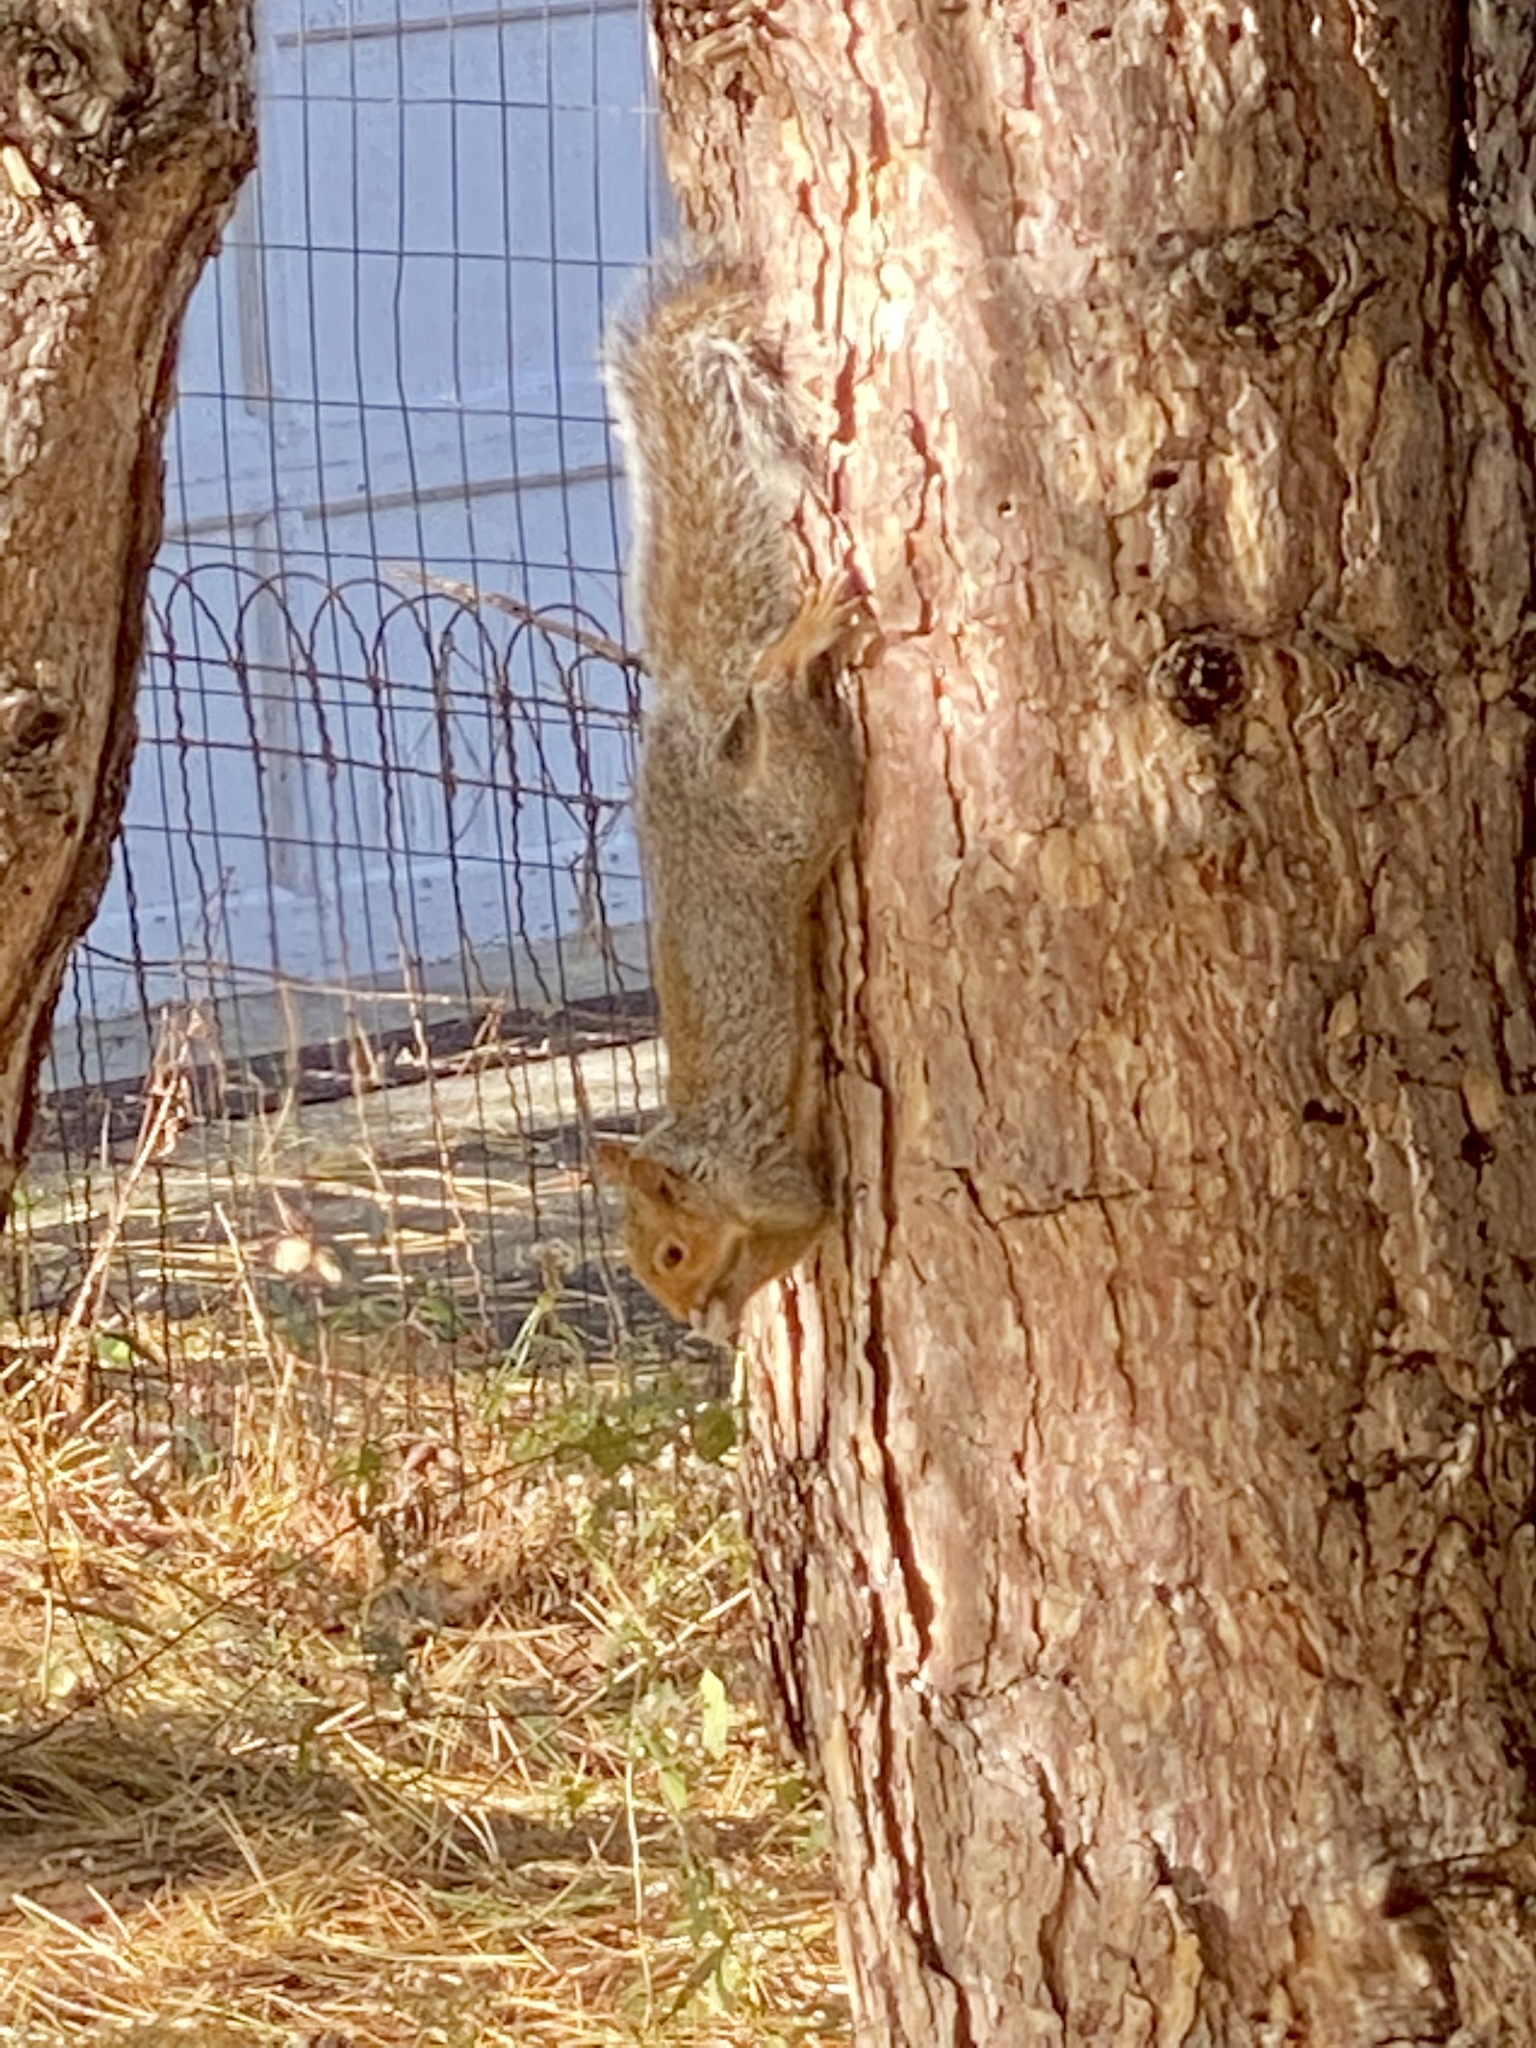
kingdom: Animalia
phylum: Chordata
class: Mammalia
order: Rodentia
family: Sciuridae
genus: Sciurus
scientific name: Sciurus carolinensis
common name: Eastern gray squirrel
